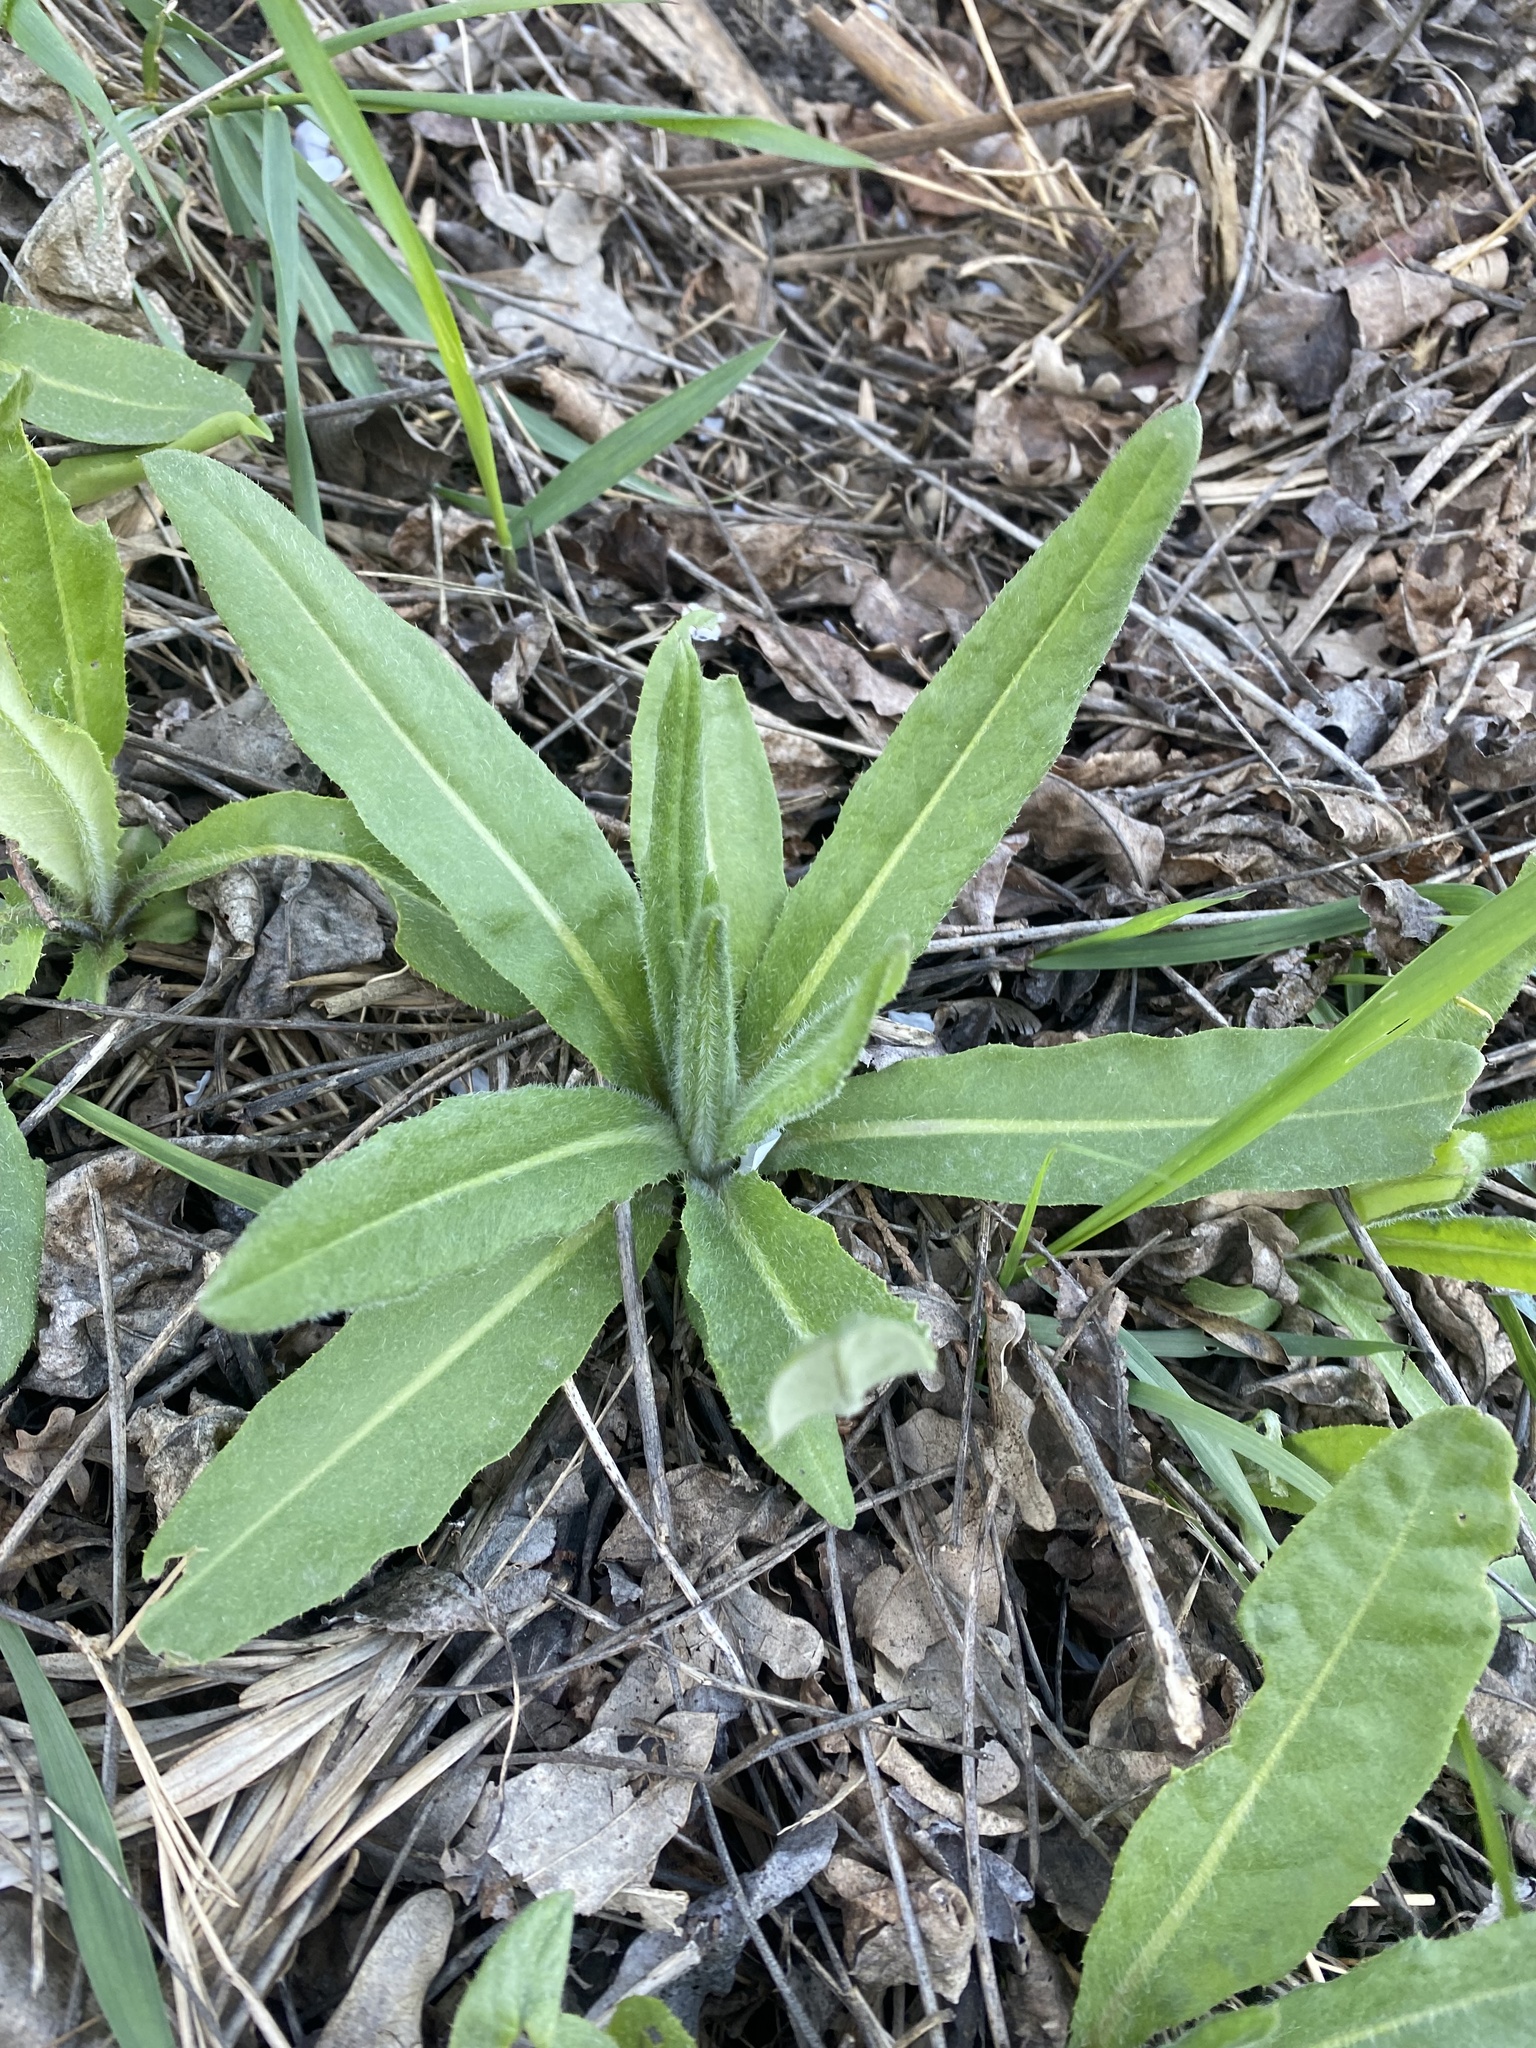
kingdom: Plantae
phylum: Tracheophyta
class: Magnoliopsida
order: Asterales
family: Asteraceae
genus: Cirsium
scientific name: Cirsium arvense
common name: Creeping thistle
